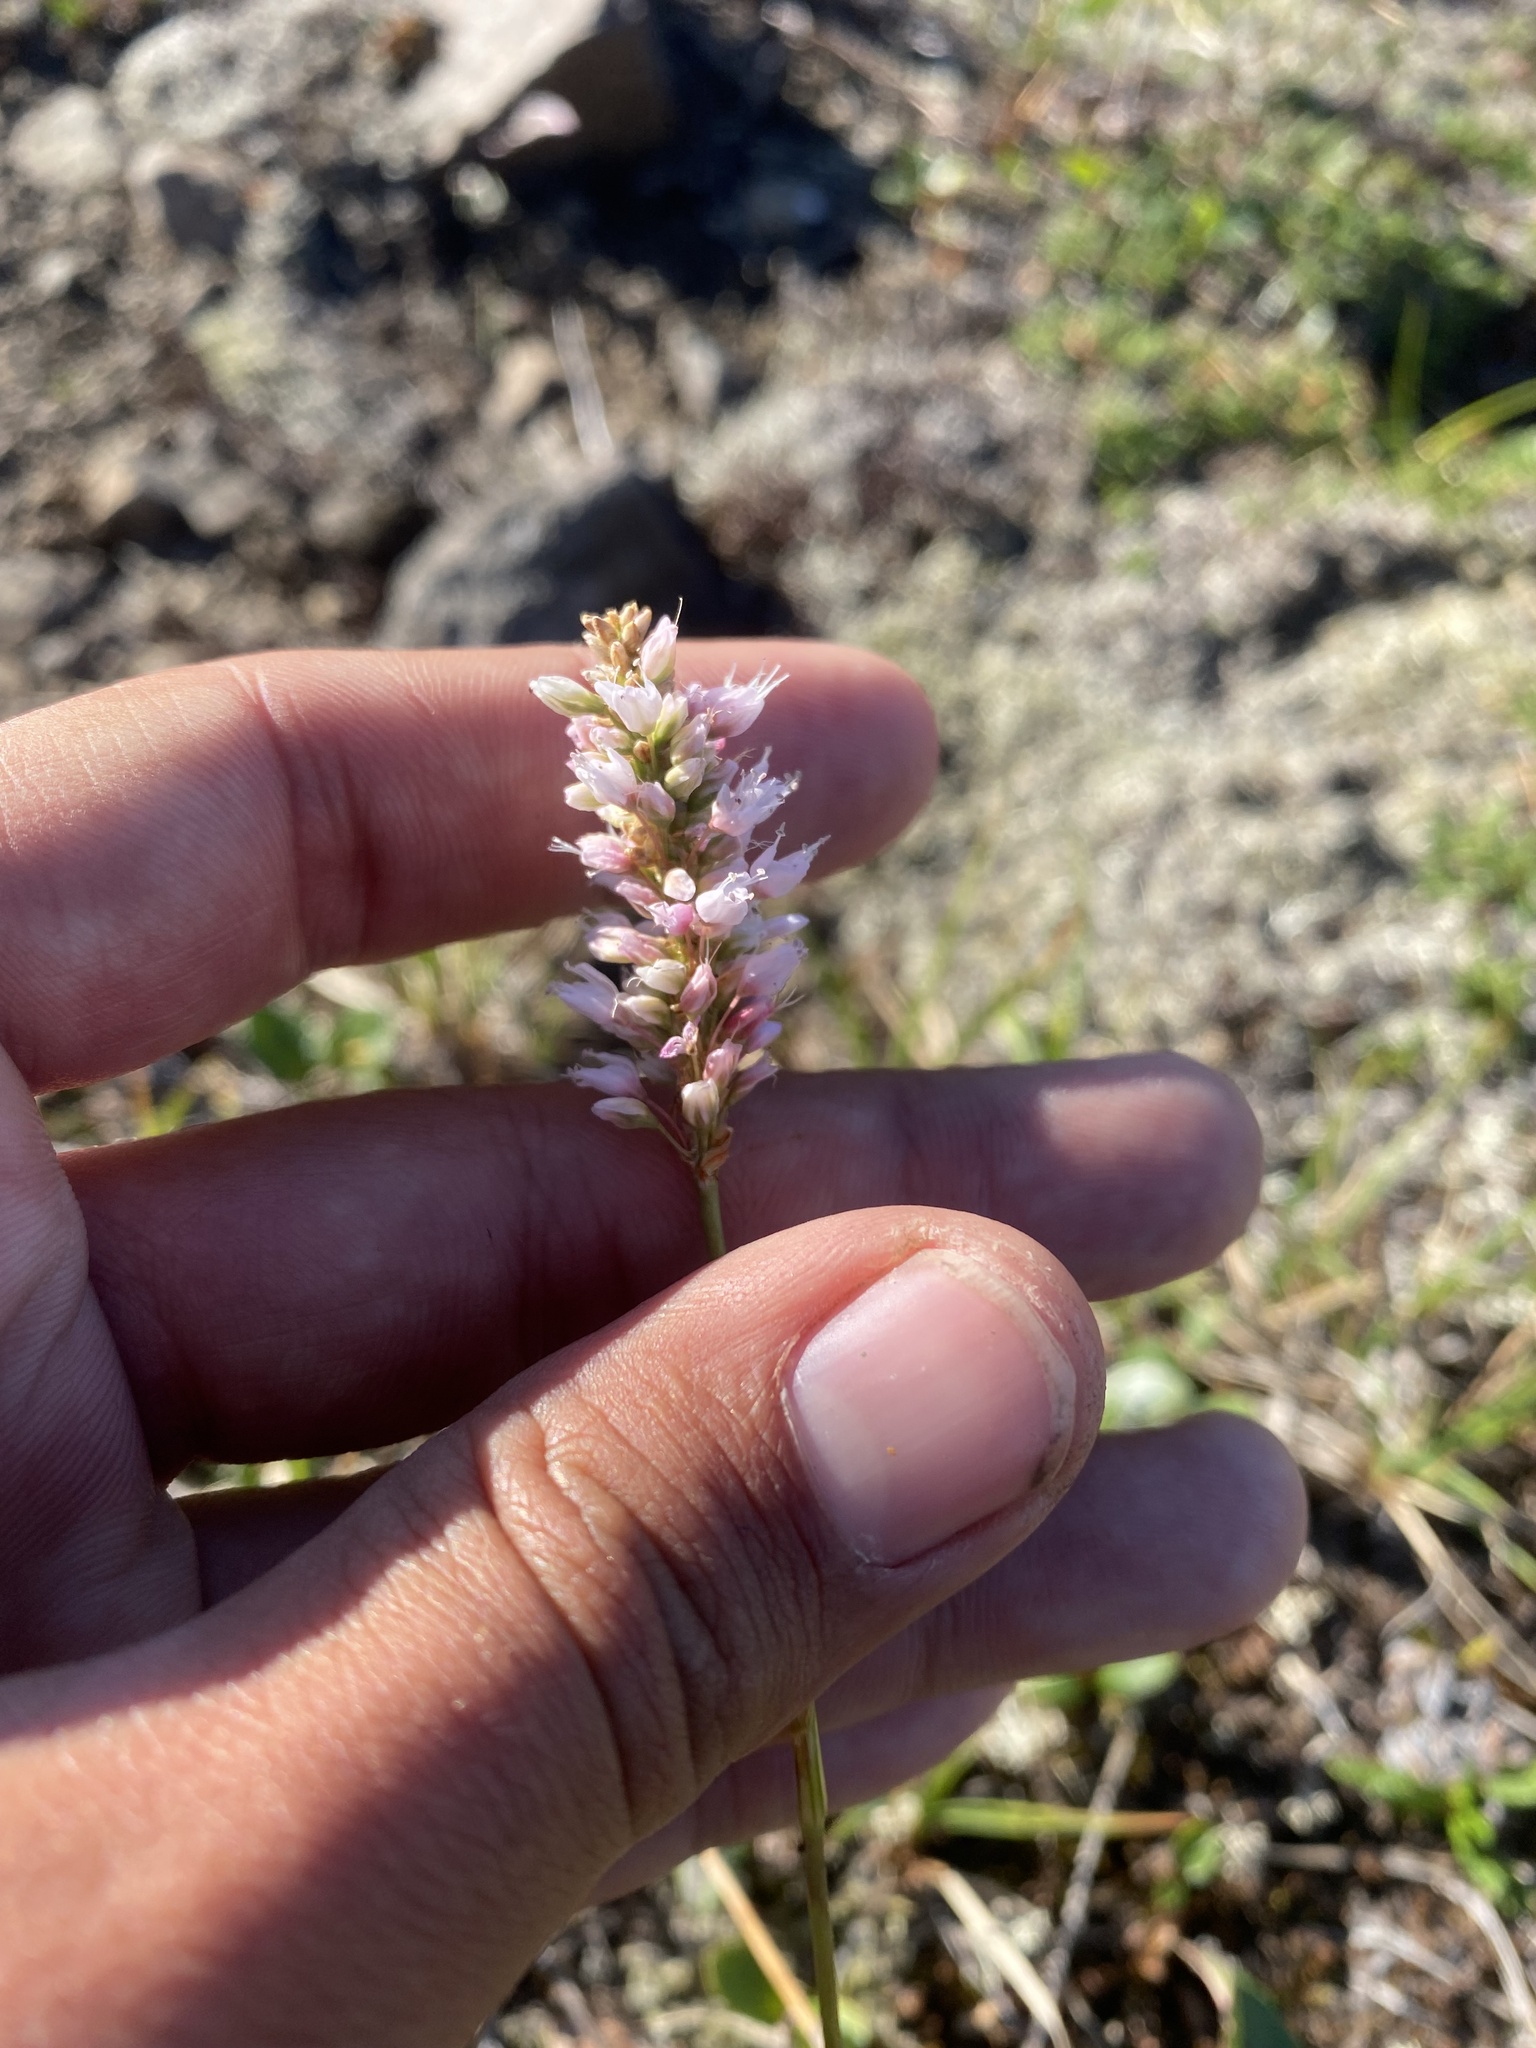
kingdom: Plantae
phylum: Tracheophyta
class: Magnoliopsida
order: Caryophyllales
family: Polygonaceae
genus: Bistorta
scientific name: Bistorta officinalis
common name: Common bistort
